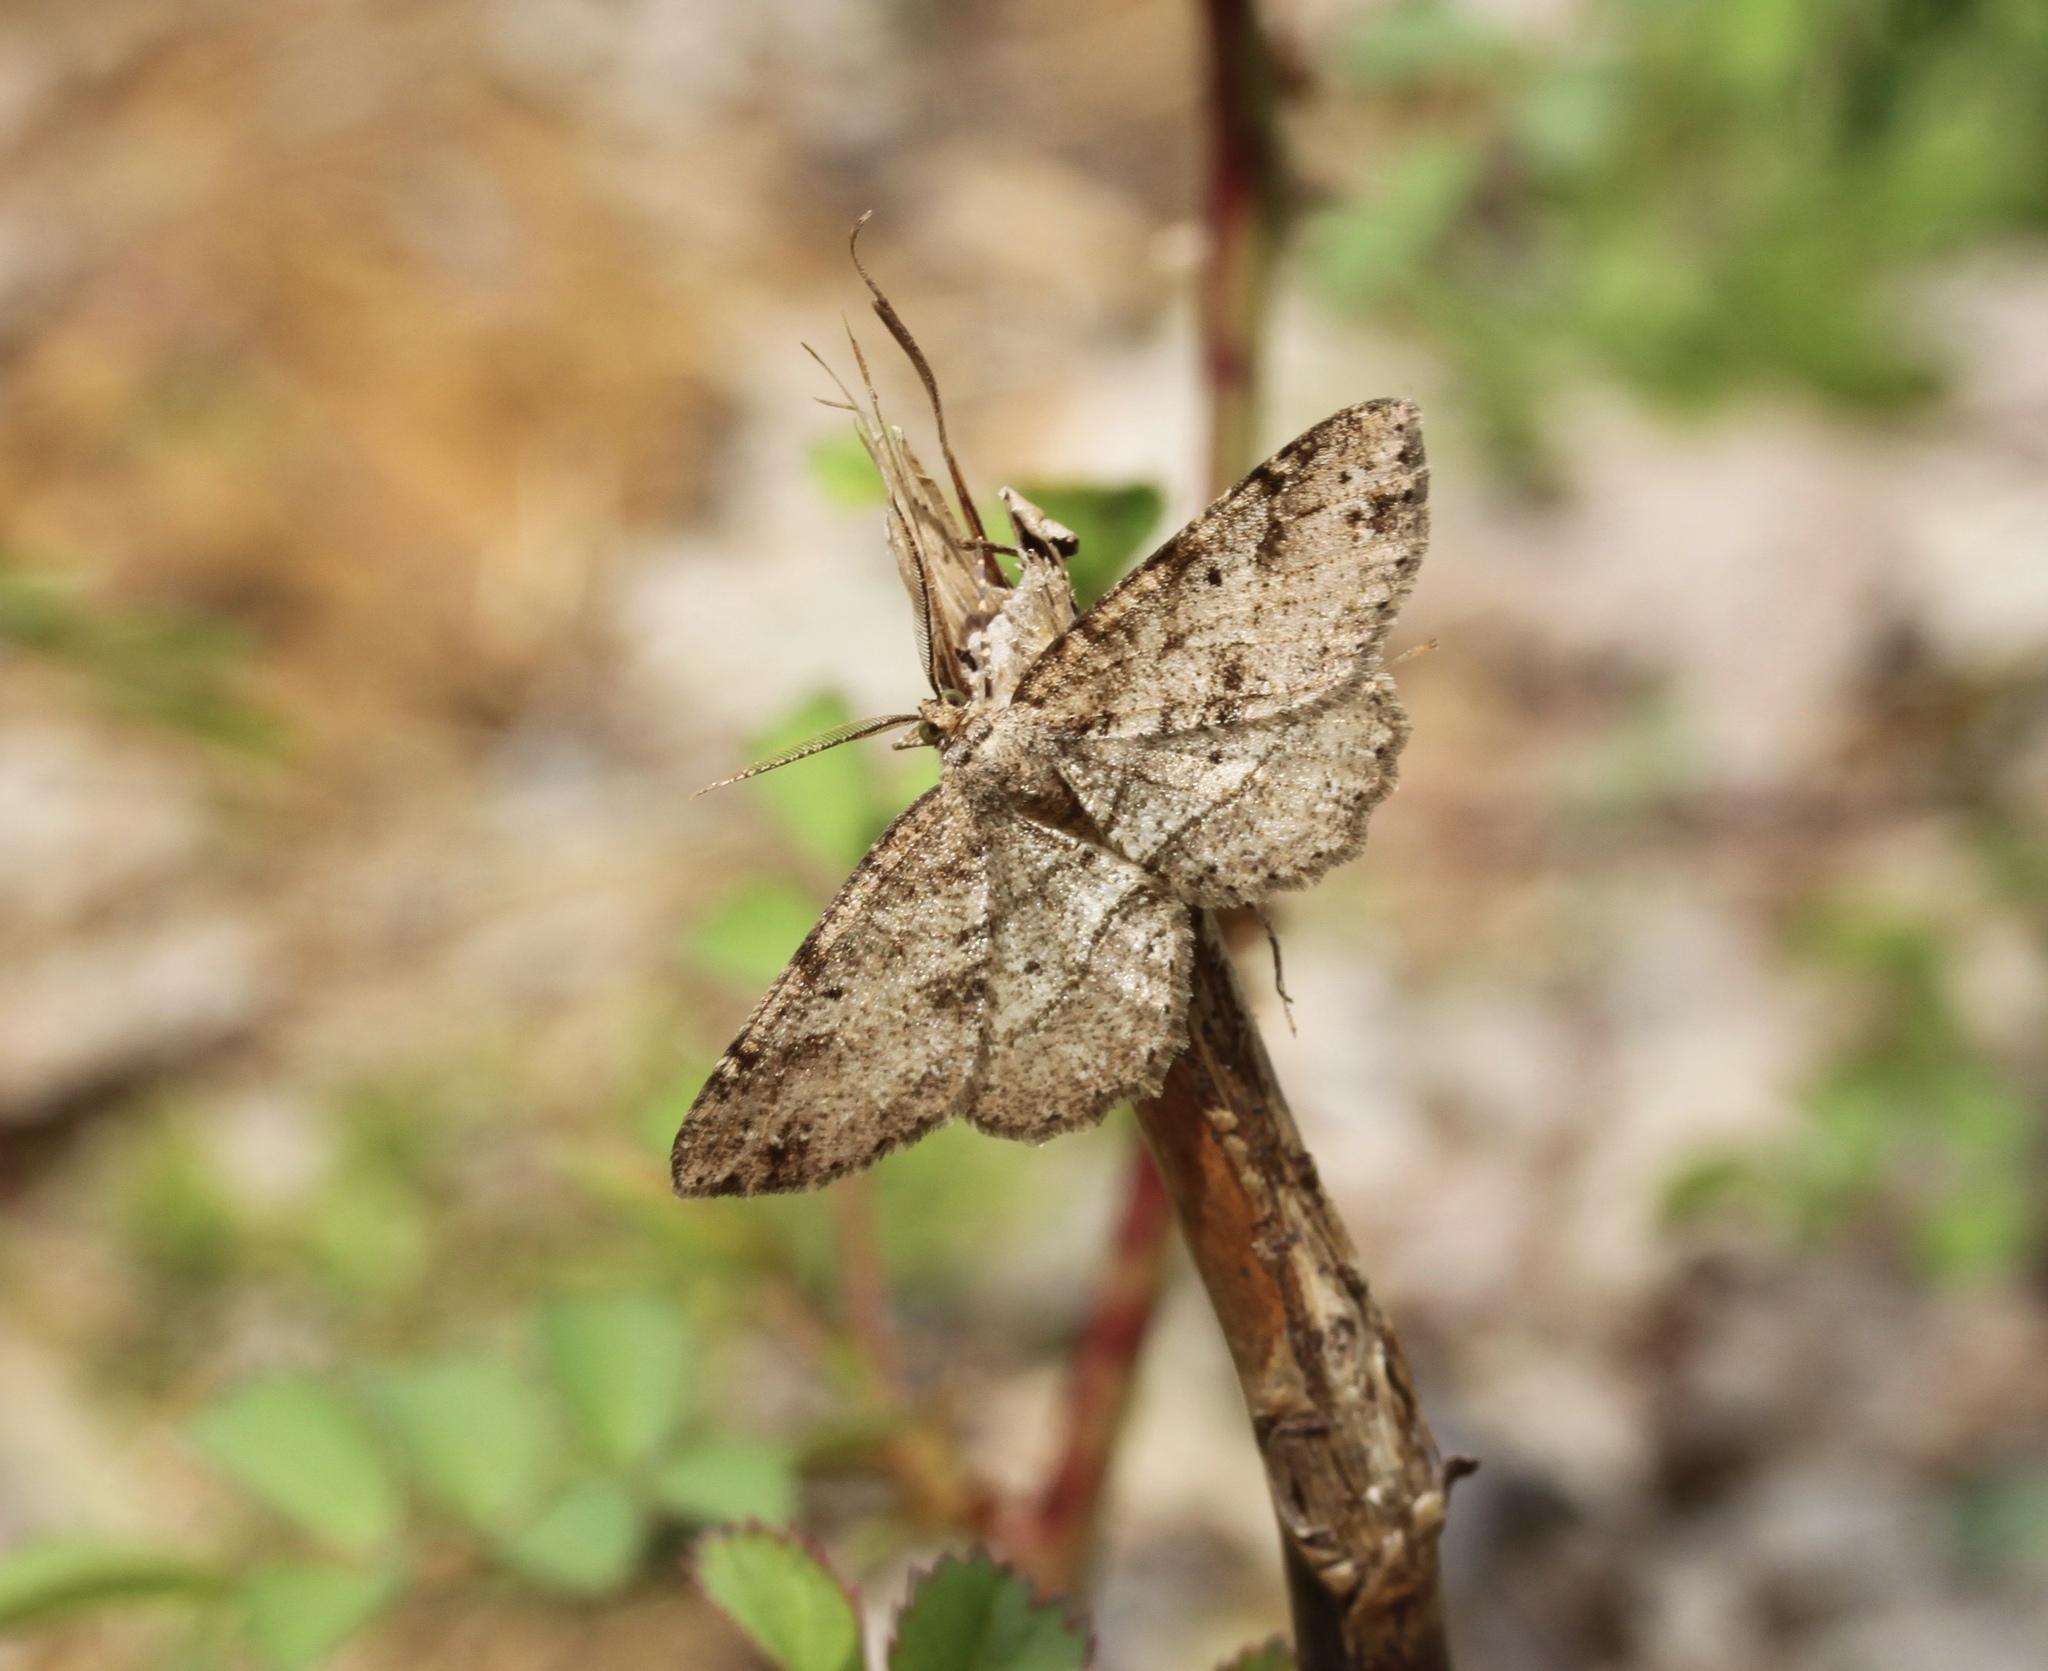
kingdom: Animalia
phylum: Arthropoda
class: Insecta
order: Lepidoptera
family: Geometridae
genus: Melanolophia
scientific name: Melanolophia signataria
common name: Signate melanolophia
